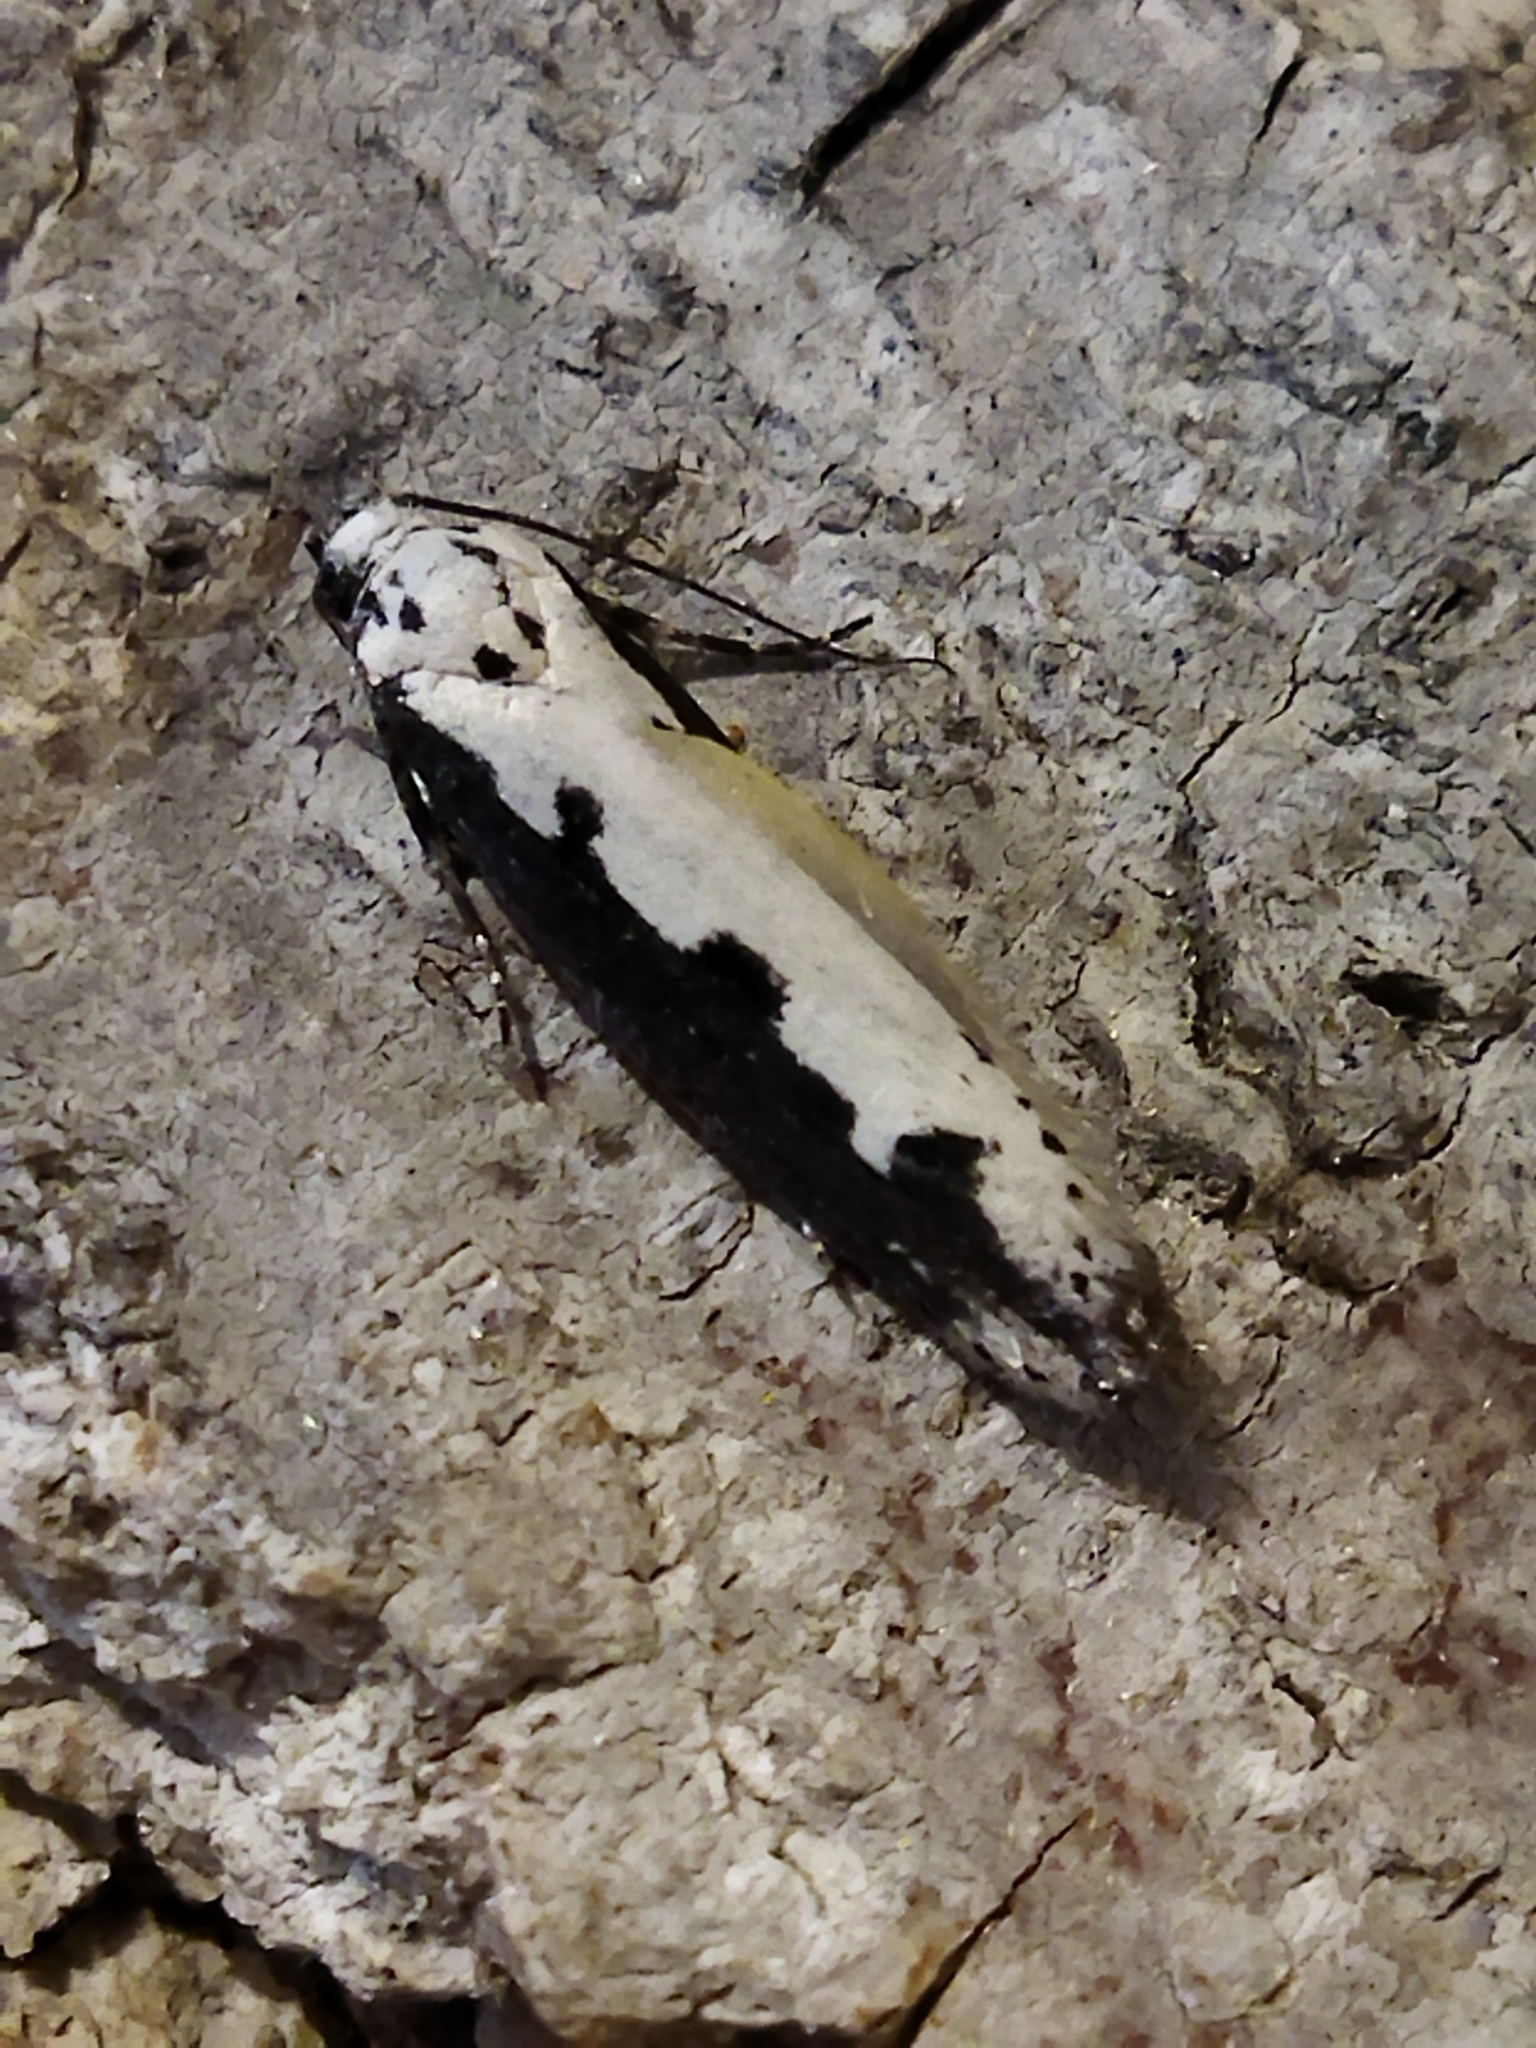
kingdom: Animalia
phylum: Arthropoda
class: Insecta
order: Lepidoptera
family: Ethmiidae
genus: Ethmia
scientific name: Ethmia bipunctella
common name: Bordered ermel
